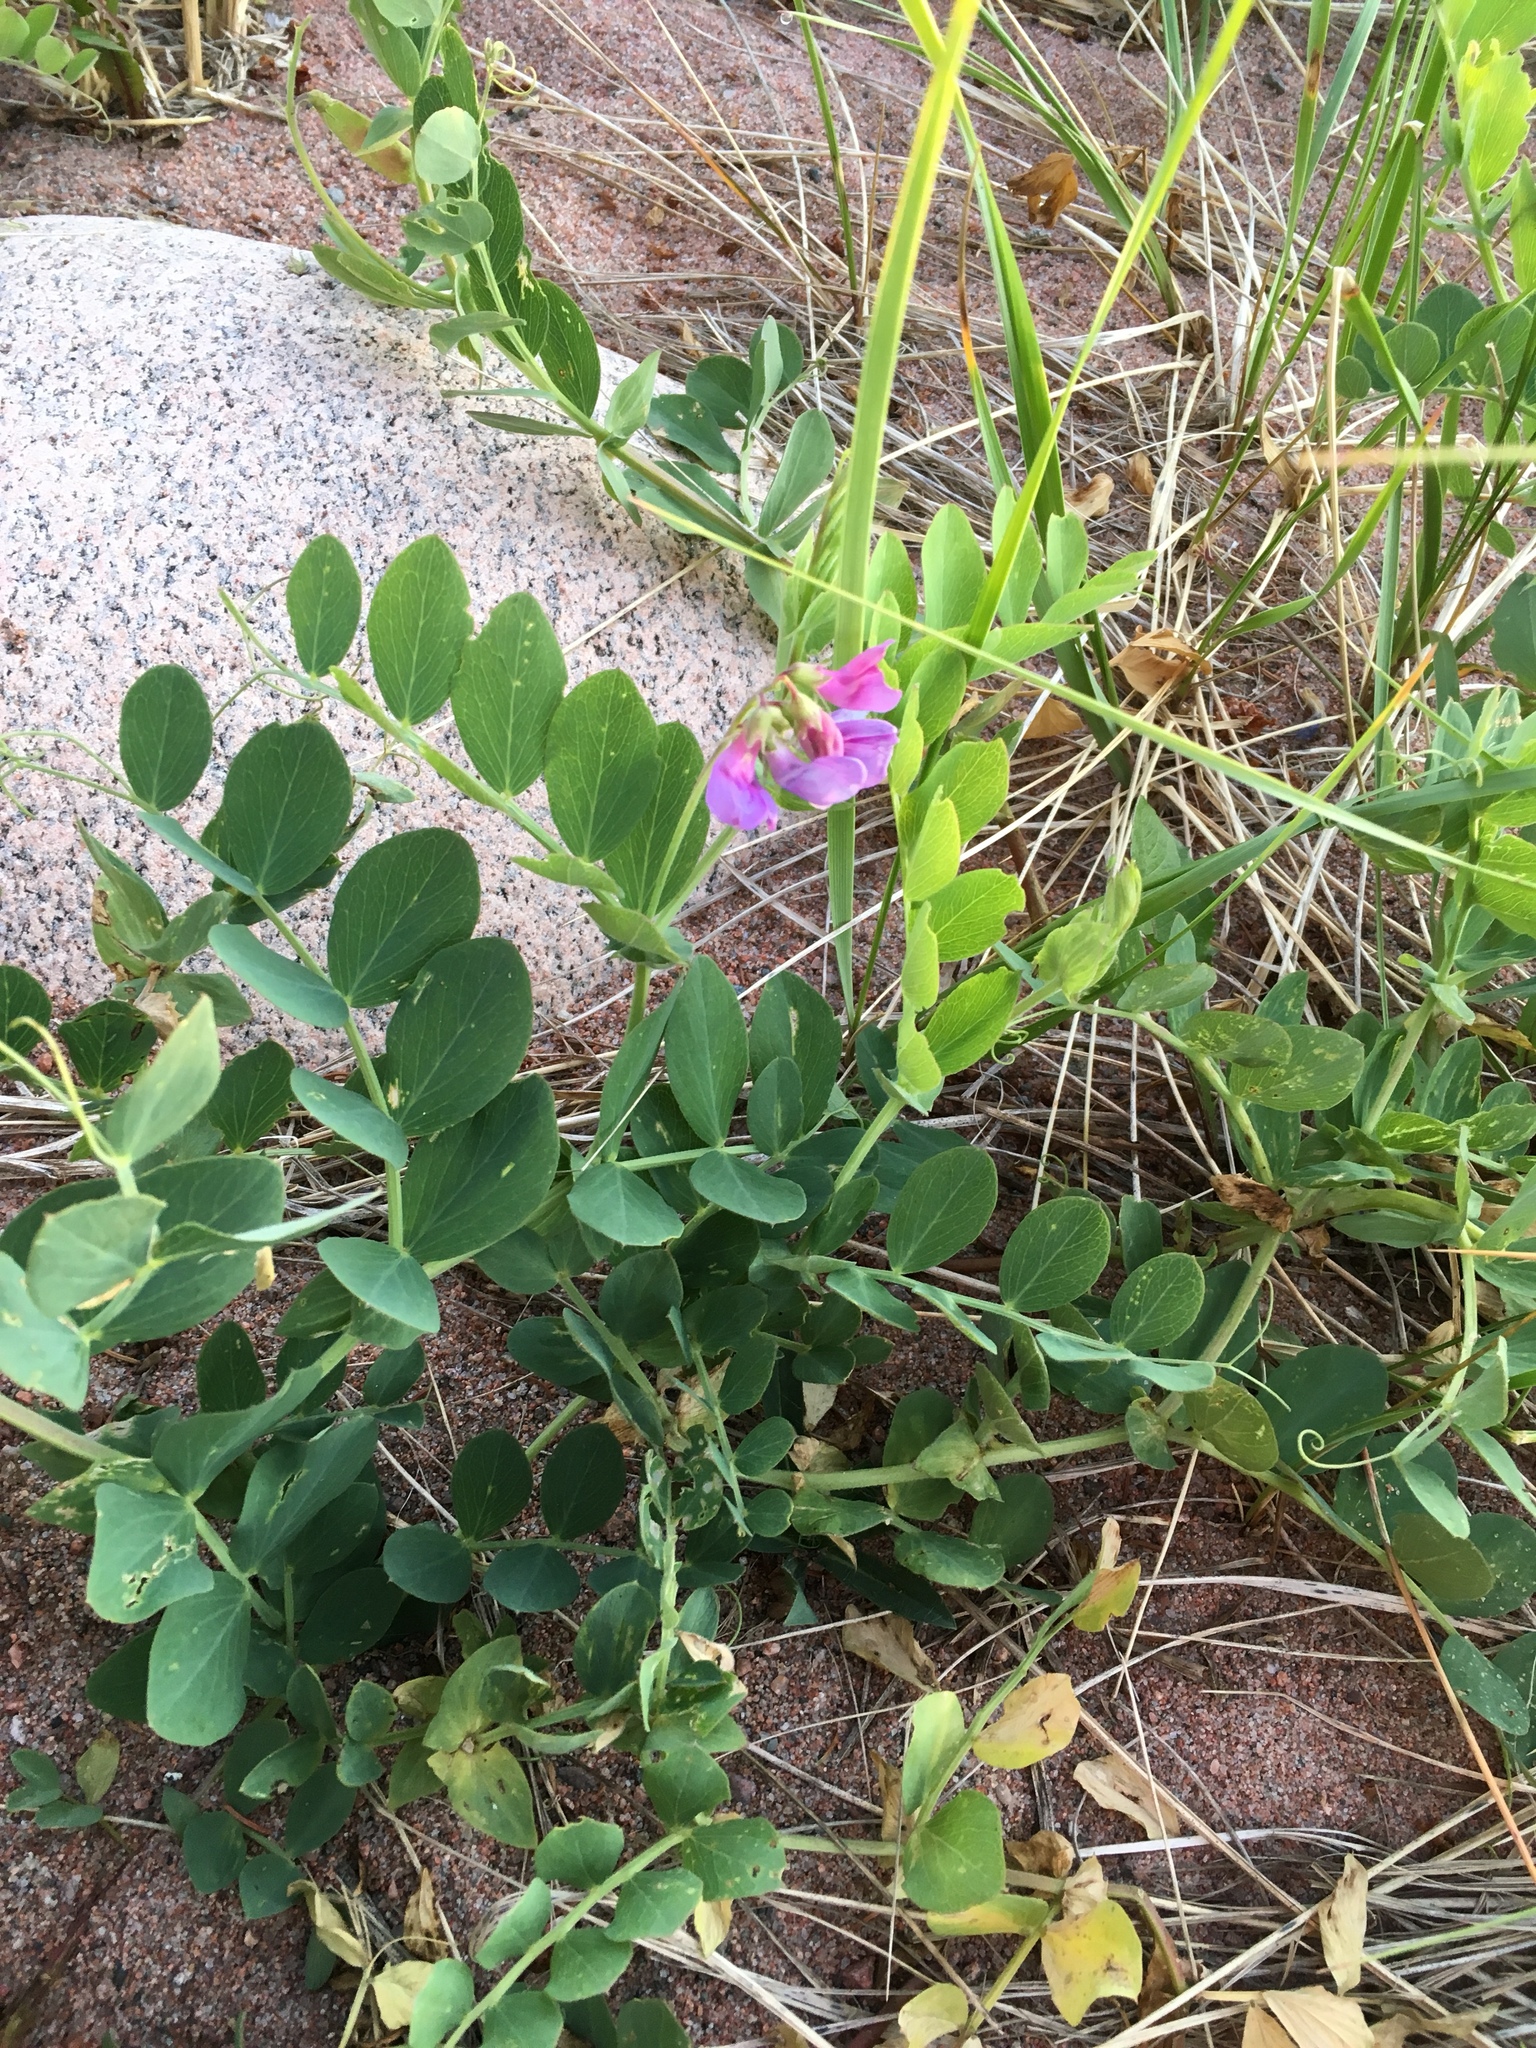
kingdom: Plantae
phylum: Tracheophyta
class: Magnoliopsida
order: Fabales
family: Fabaceae
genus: Lathyrus
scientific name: Lathyrus japonicus
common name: Sea pea
